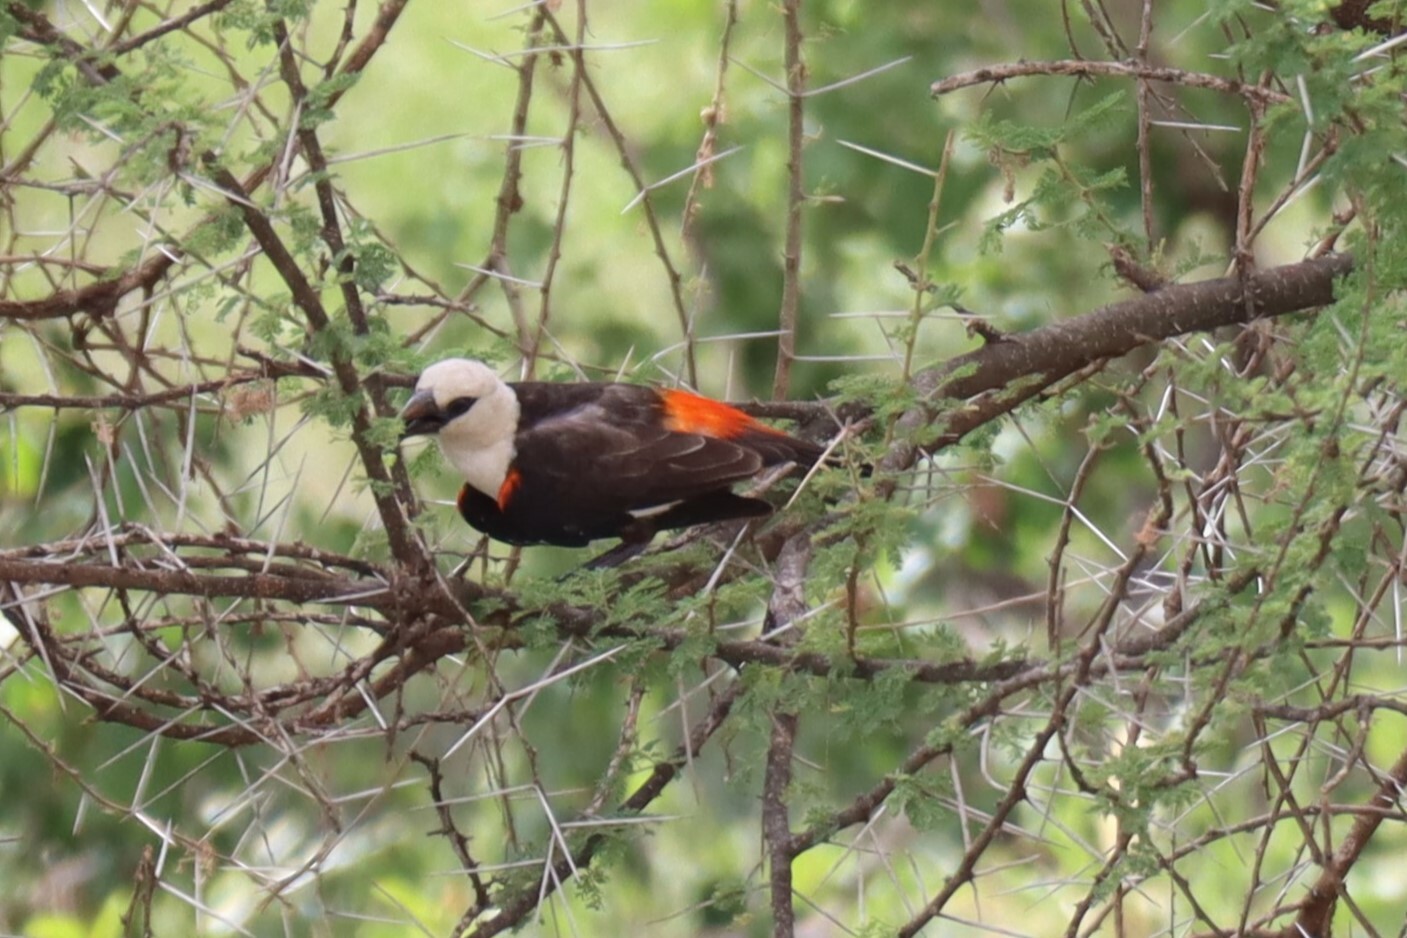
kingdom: Animalia
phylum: Chordata
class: Aves
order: Passeriformes
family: Ploceidae
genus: Dinemellia
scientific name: Dinemellia dinemelli
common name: White-headed buffalo weaver
